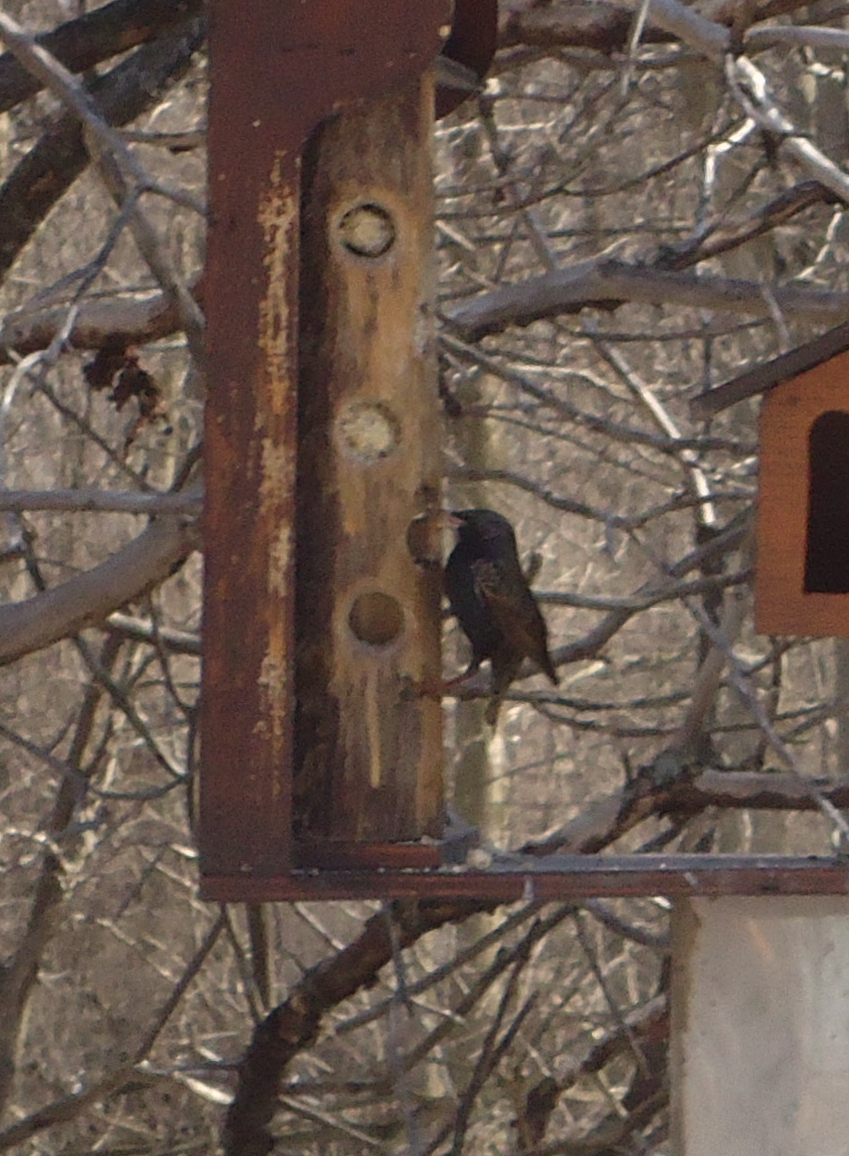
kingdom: Animalia
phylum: Chordata
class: Aves
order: Passeriformes
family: Sturnidae
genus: Sturnus
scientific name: Sturnus vulgaris
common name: Common starling
